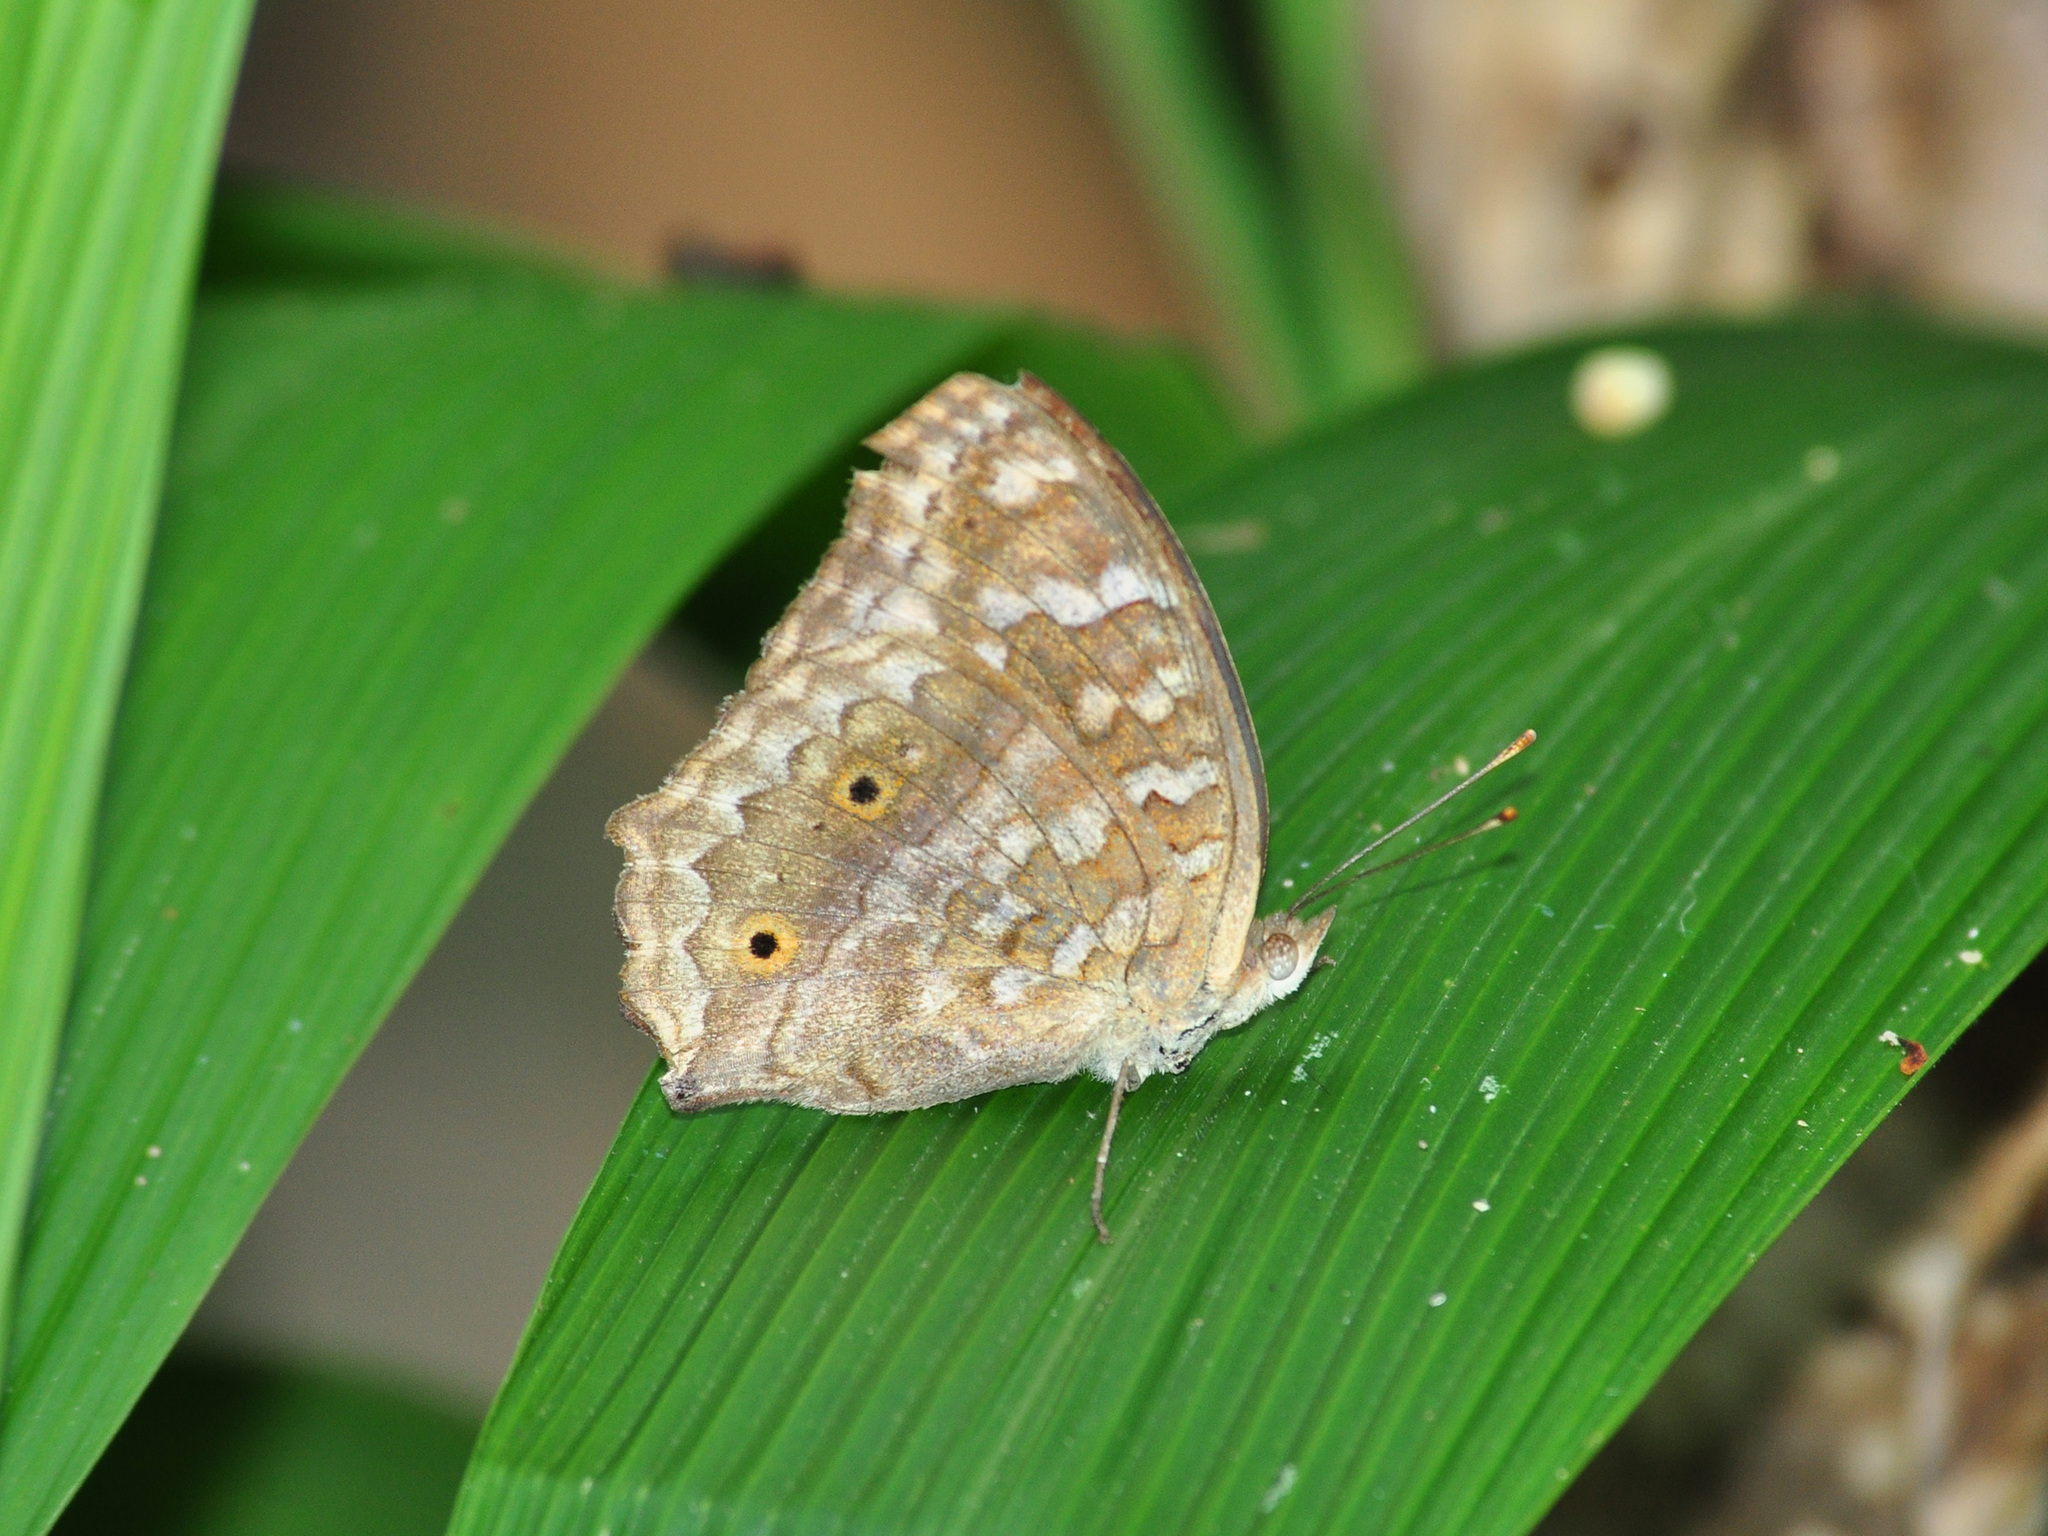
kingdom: Animalia
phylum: Arthropoda
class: Insecta
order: Lepidoptera
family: Nymphalidae
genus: Junonia
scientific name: Junonia lemonias
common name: Lemon pansy
